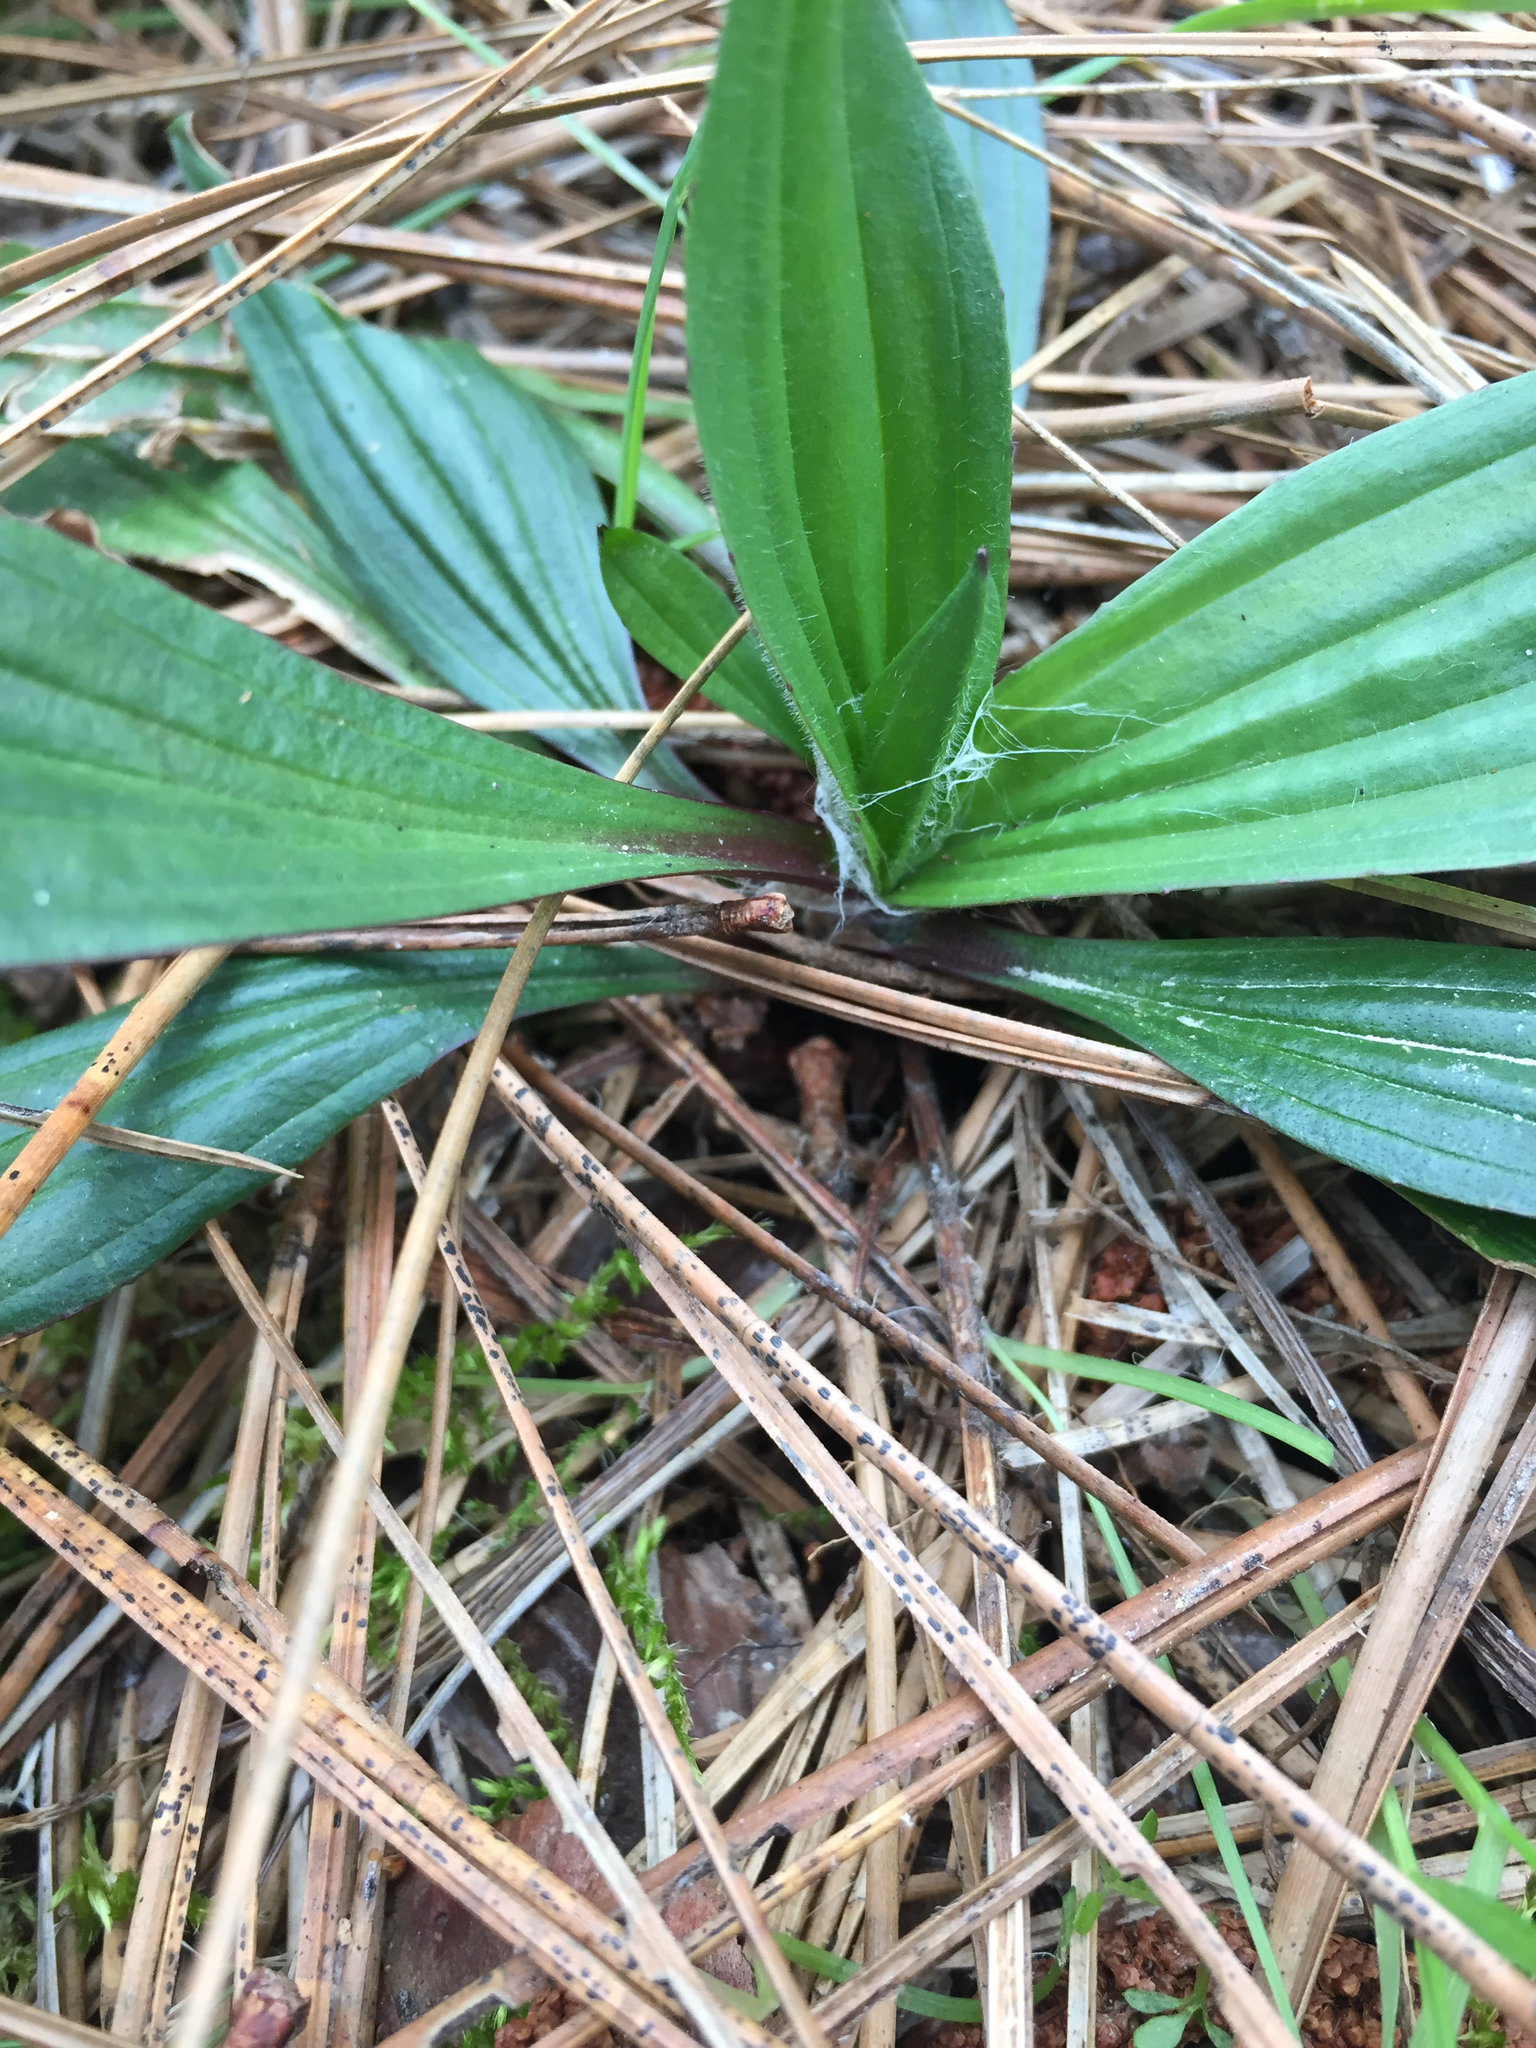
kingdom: Plantae
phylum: Tracheophyta
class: Magnoliopsida
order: Lamiales
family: Plantaginaceae
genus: Plantago
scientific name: Plantago lanceolata
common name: Ribwort plantain
